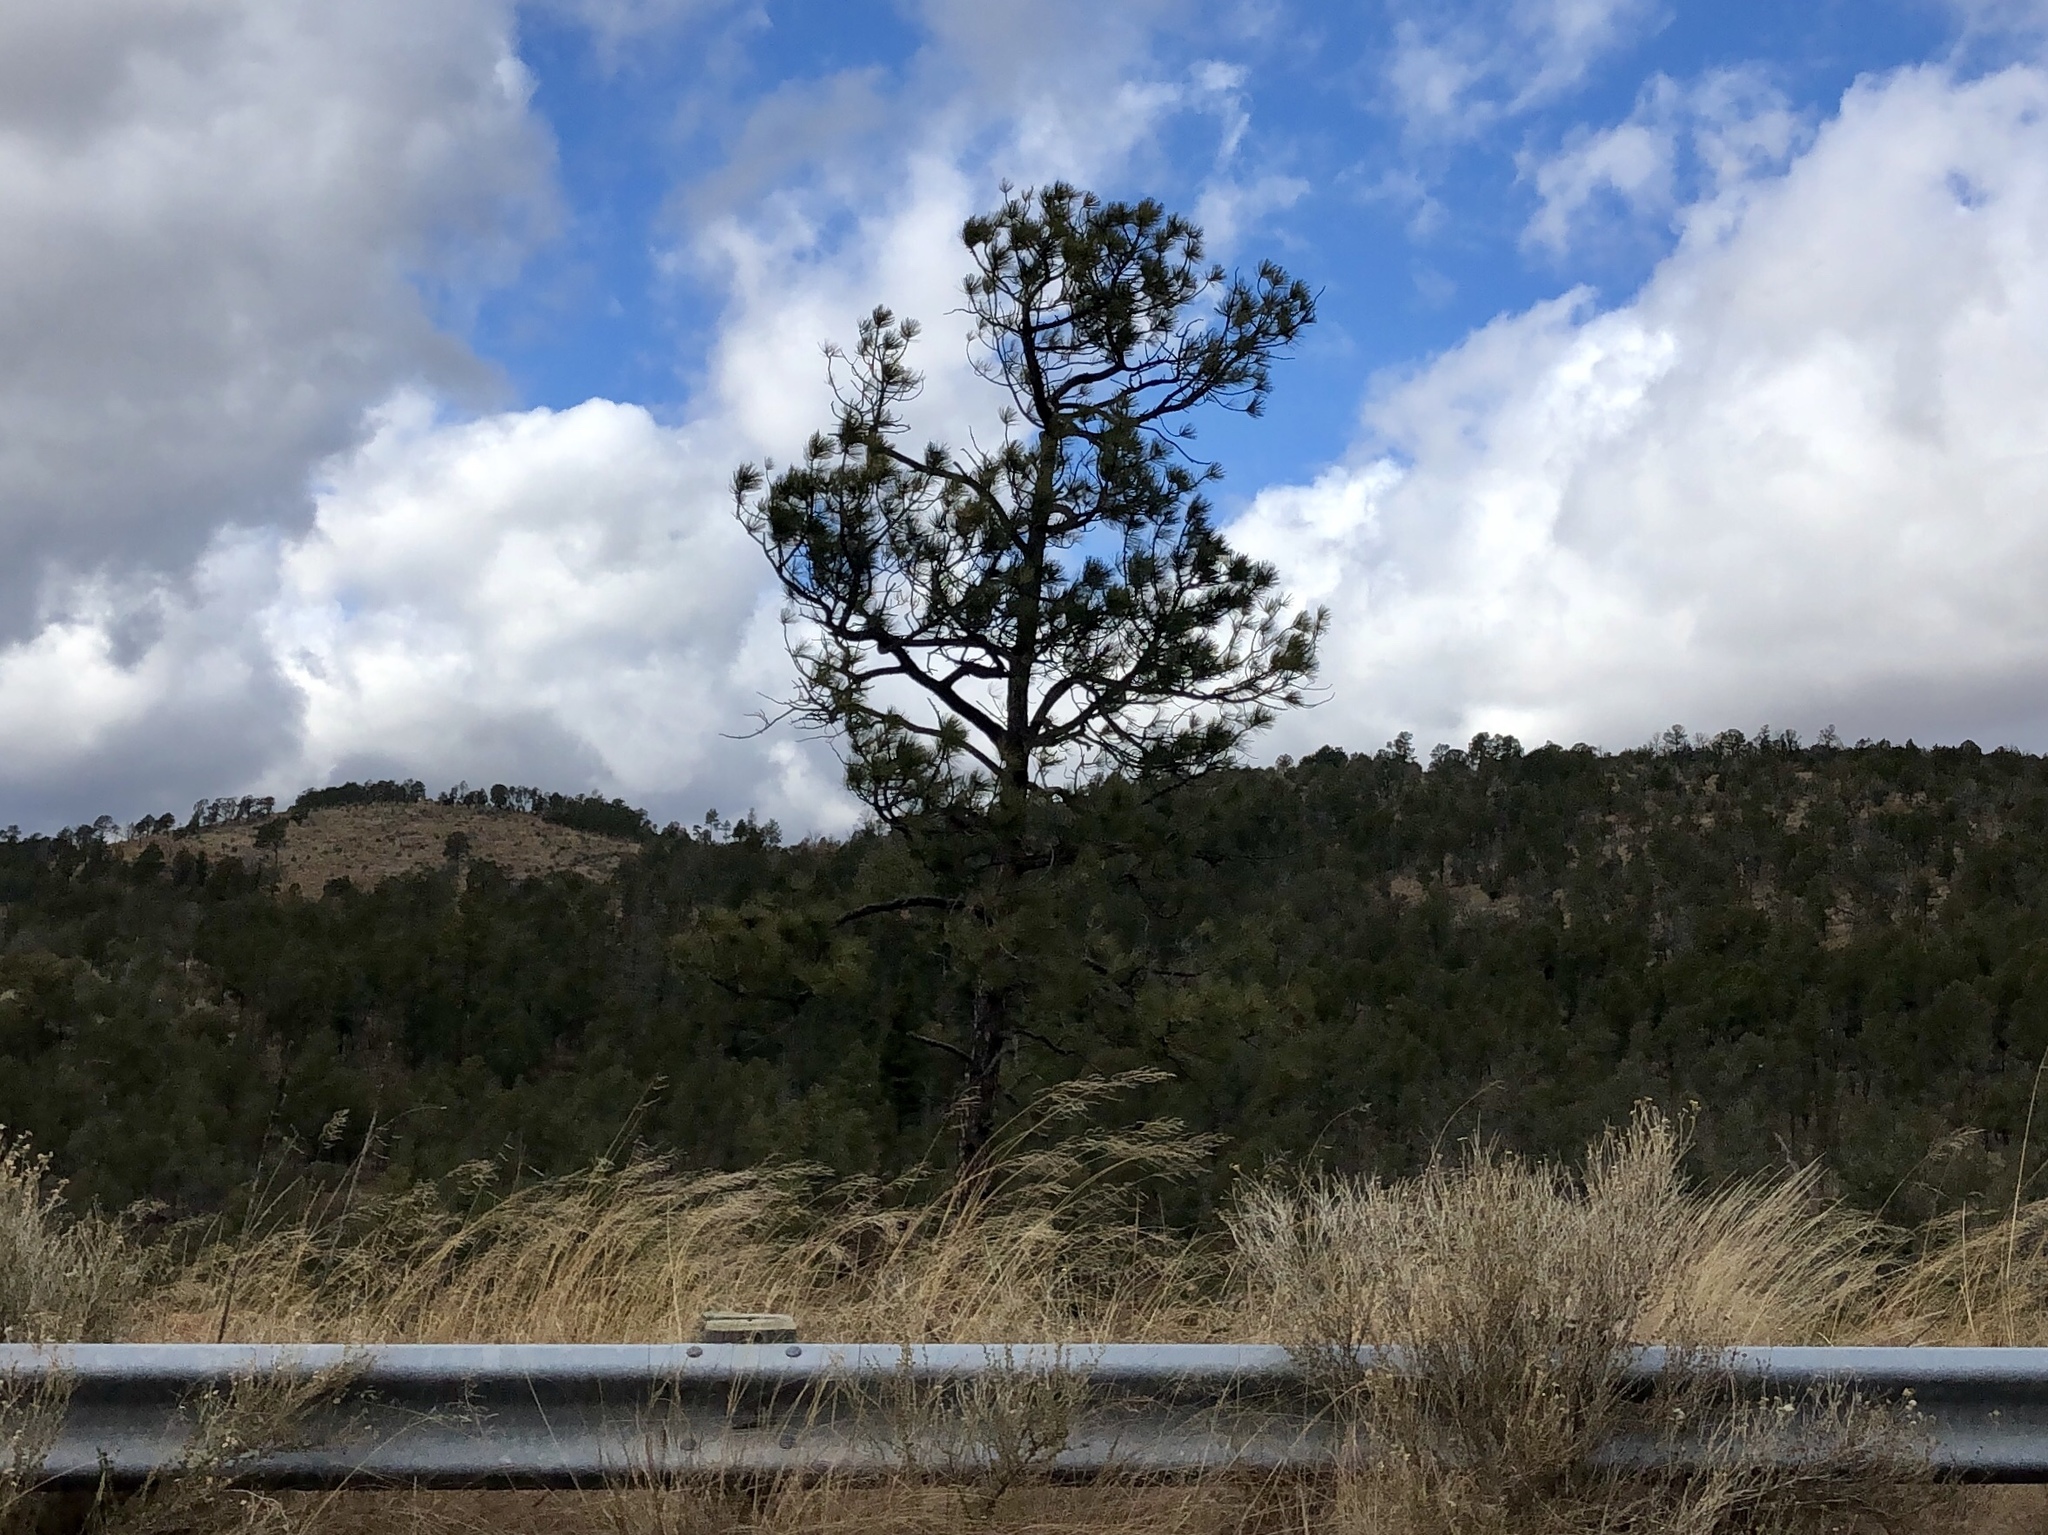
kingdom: Plantae
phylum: Tracheophyta
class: Pinopsida
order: Pinales
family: Pinaceae
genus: Pinus
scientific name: Pinus ponderosa
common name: Western yellow-pine
